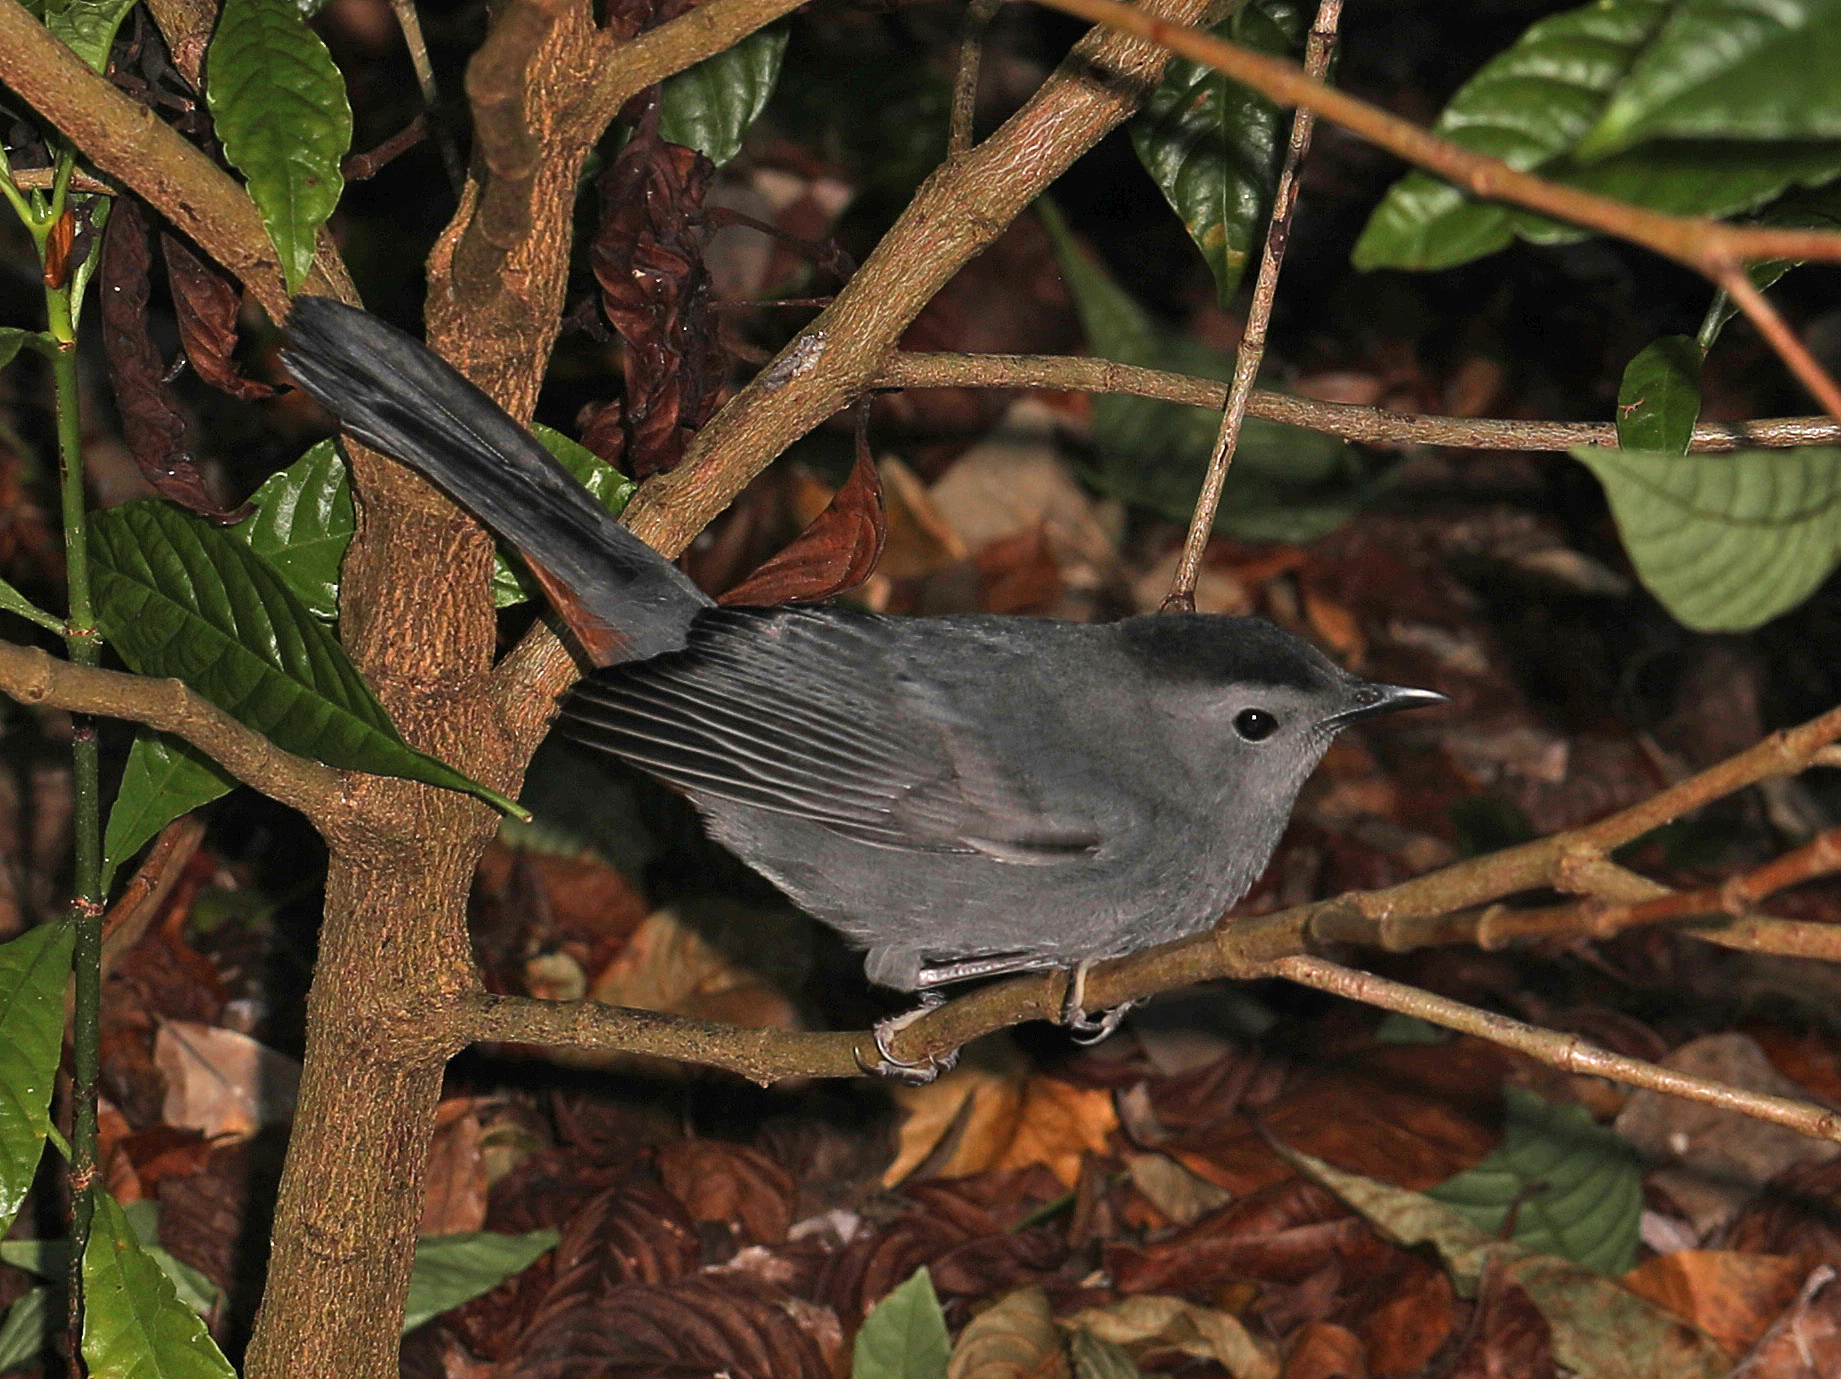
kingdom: Animalia
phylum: Chordata
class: Aves
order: Passeriformes
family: Mimidae
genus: Dumetella
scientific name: Dumetella carolinensis
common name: Gray catbird
